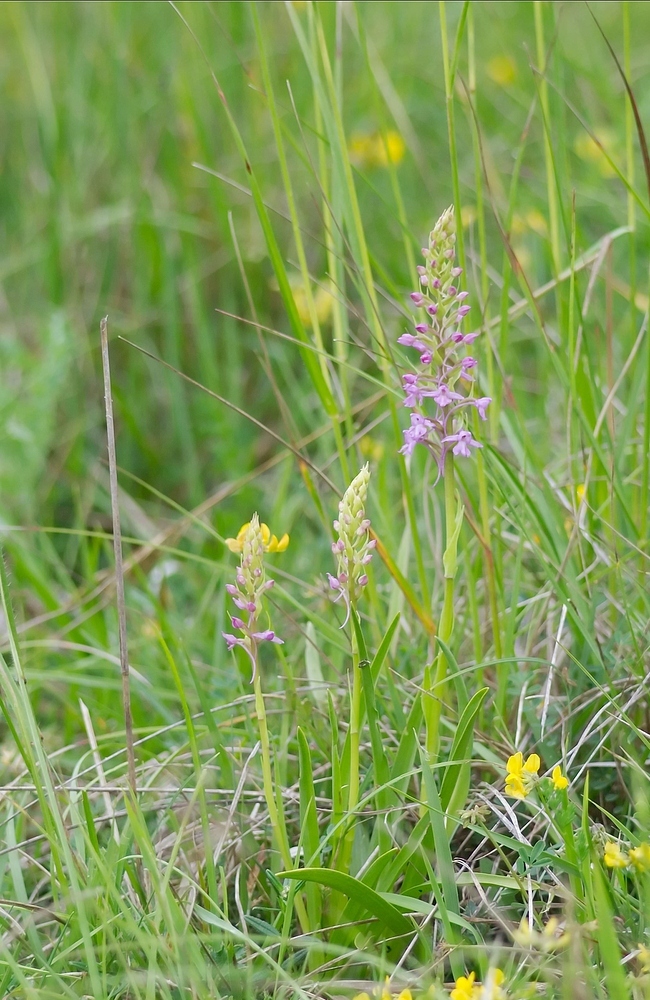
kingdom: Plantae
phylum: Tracheophyta
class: Liliopsida
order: Asparagales
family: Orchidaceae
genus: Gymnadenia
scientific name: Gymnadenia conopsea
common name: Fragrant orchid
